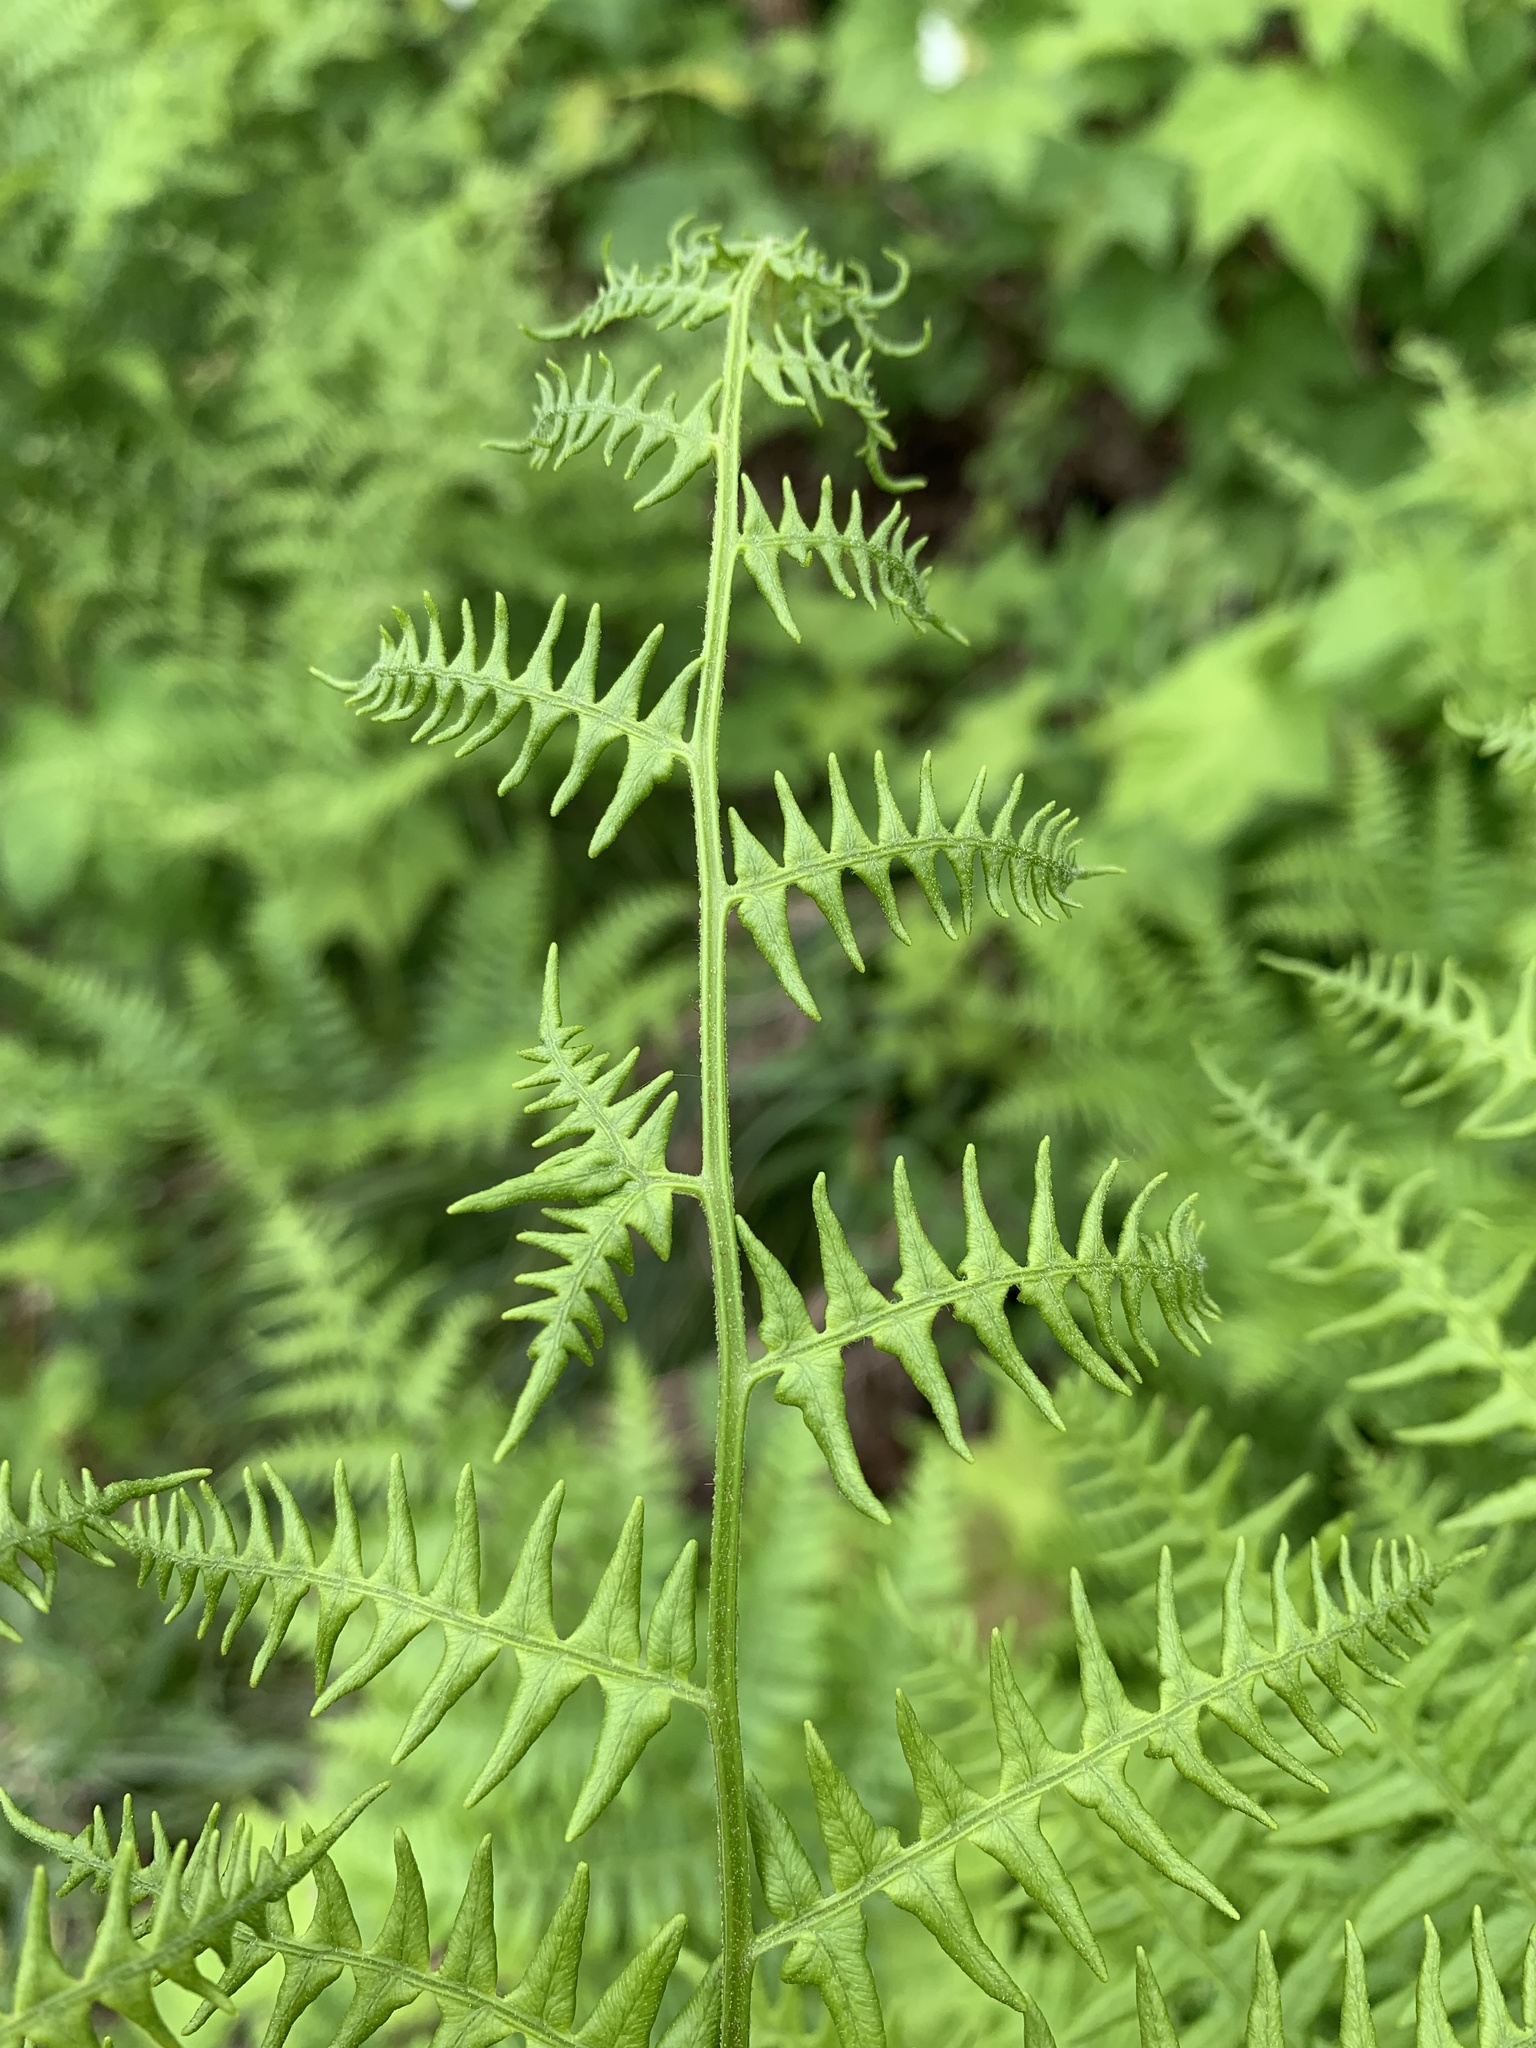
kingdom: Plantae
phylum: Tracheophyta
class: Polypodiopsida
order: Polypodiales
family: Dennstaedtiaceae
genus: Pteridium
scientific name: Pteridium aquilinum
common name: Bracken
